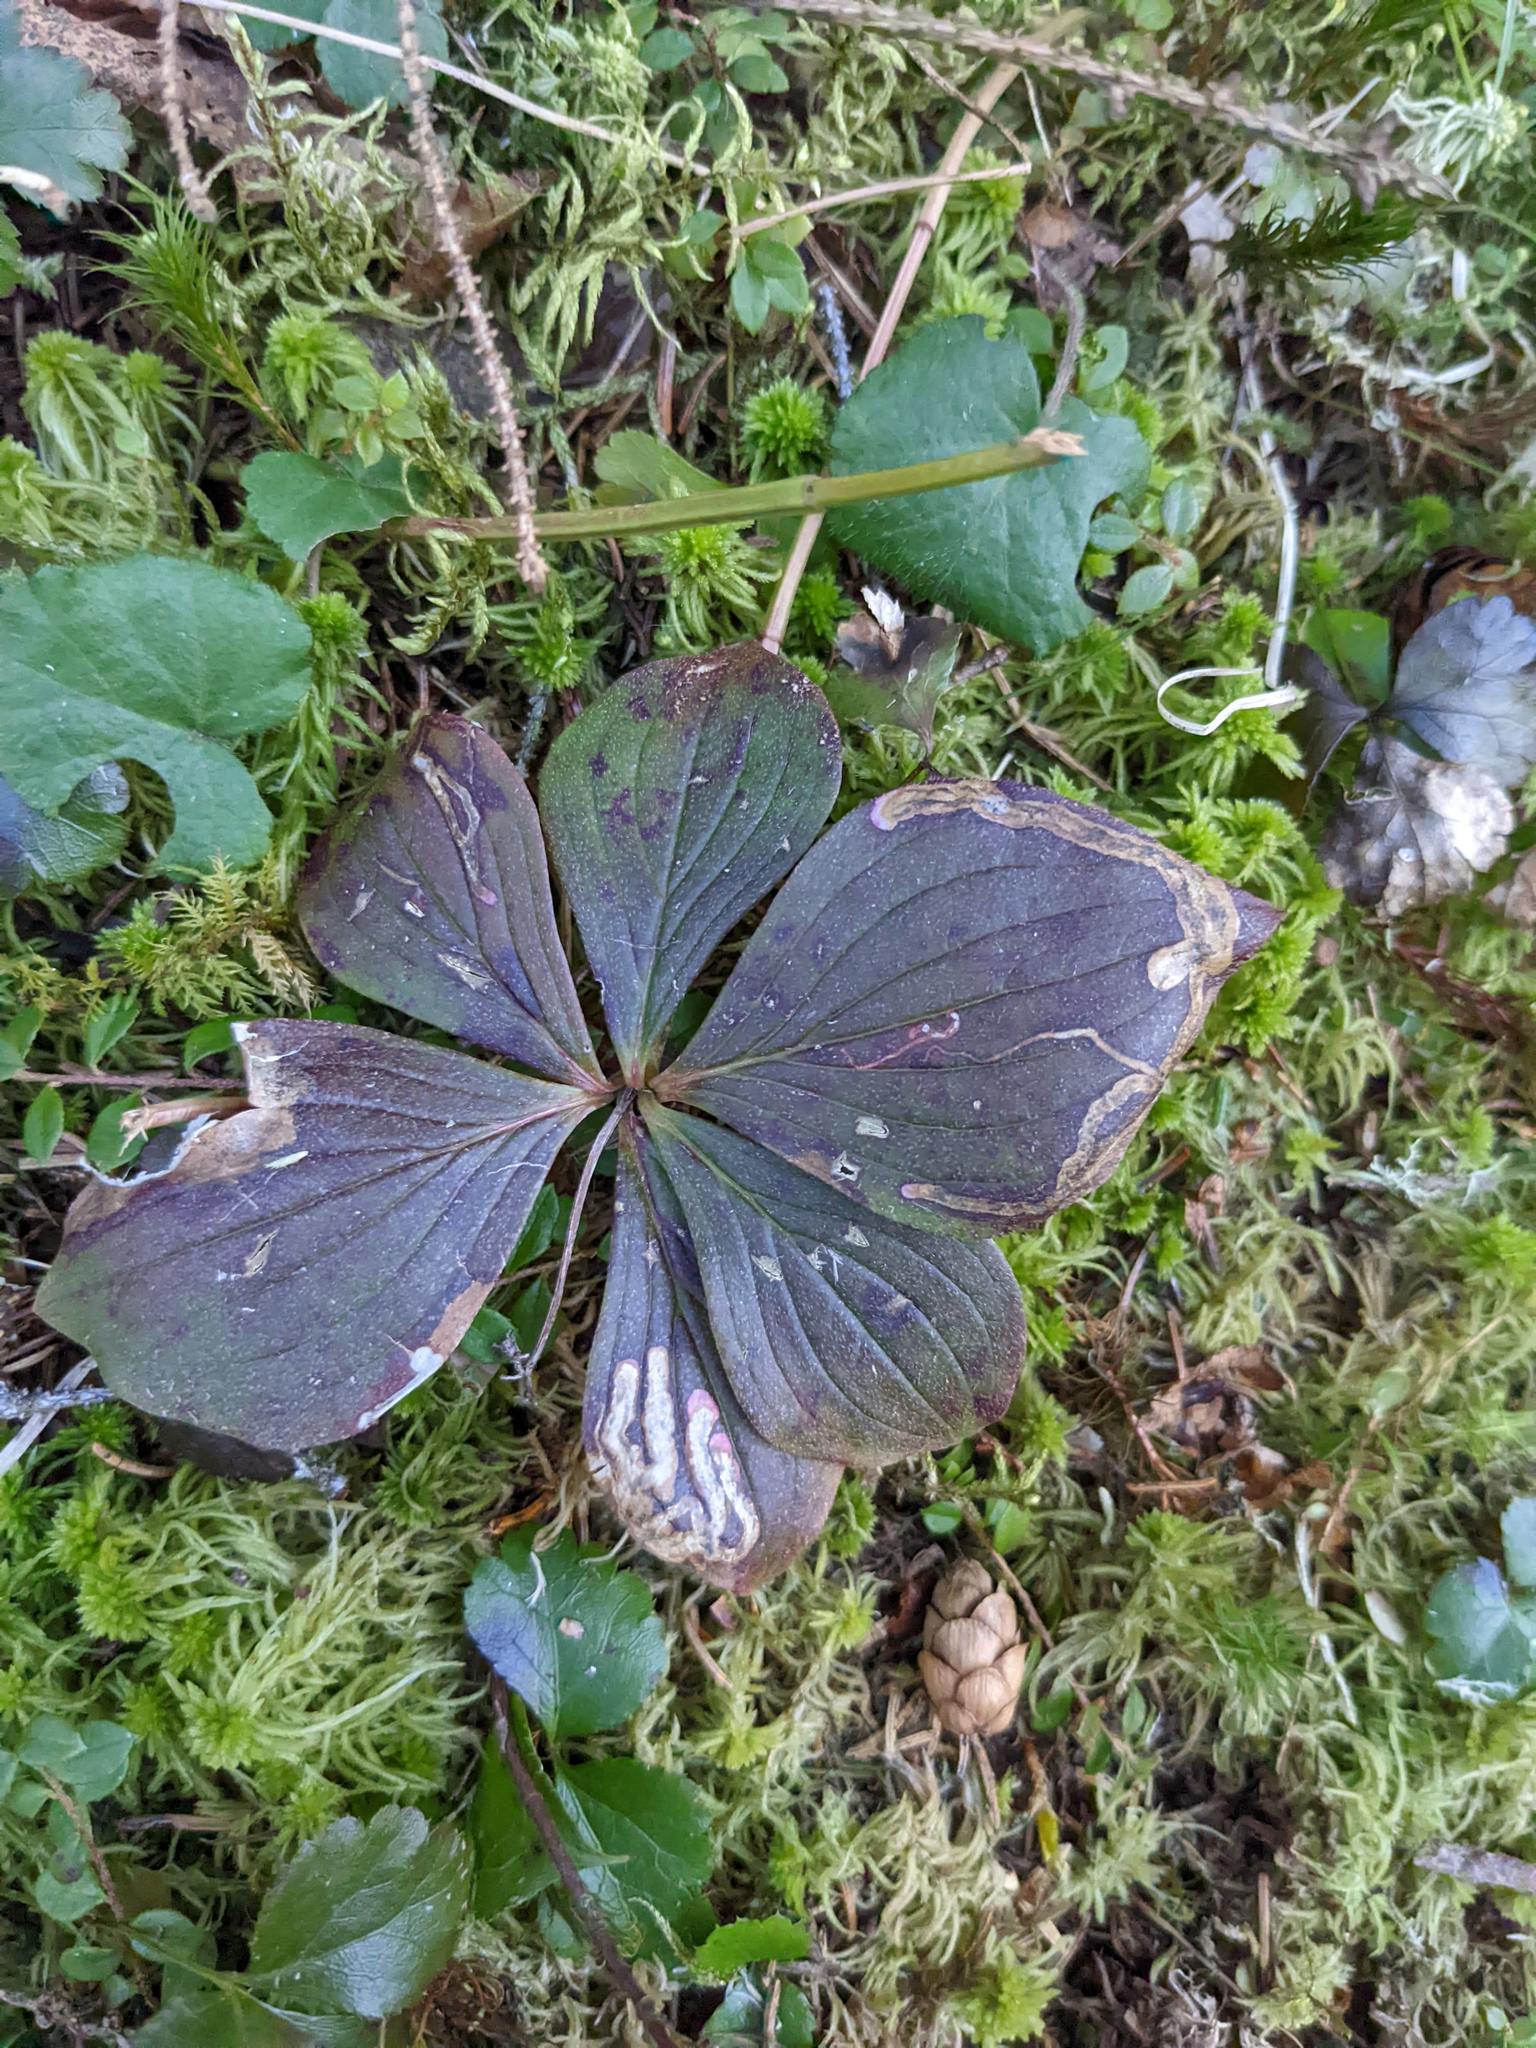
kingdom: Plantae
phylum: Tracheophyta
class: Magnoliopsida
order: Cornales
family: Cornaceae
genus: Cornus
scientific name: Cornus canadensis
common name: Creeping dogwood
